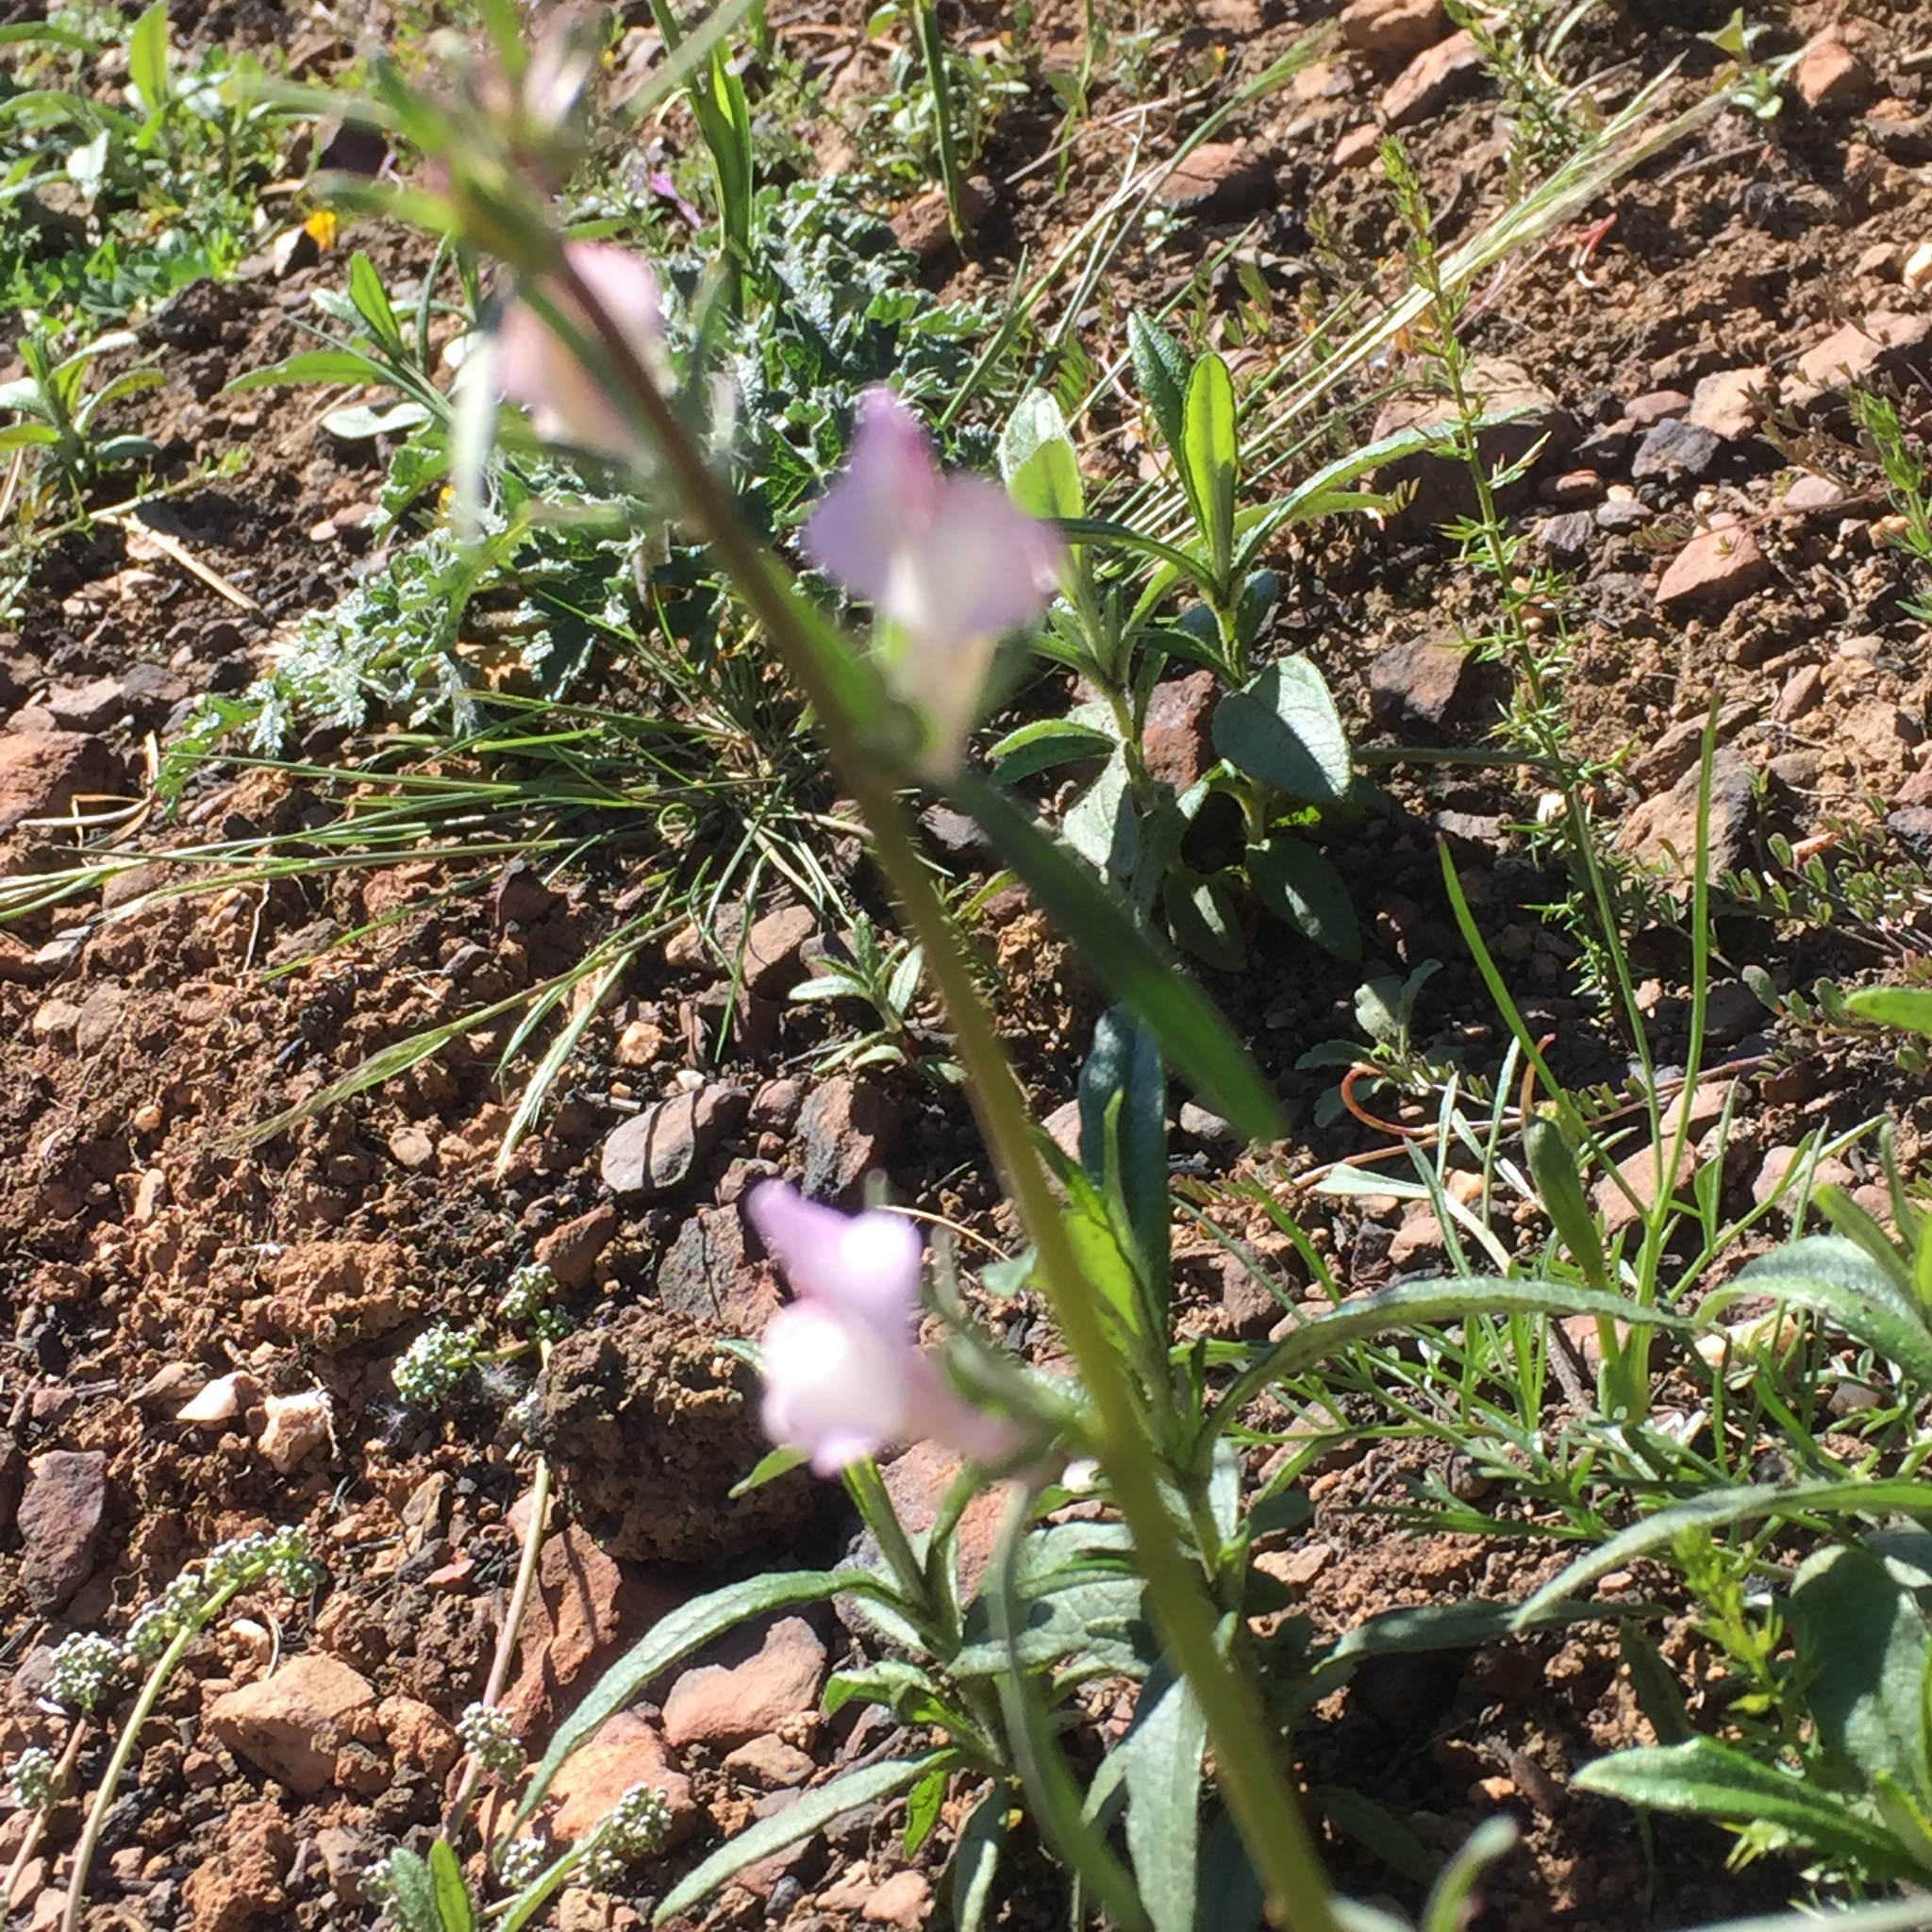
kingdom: Plantae
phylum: Tracheophyta
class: Magnoliopsida
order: Lamiales
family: Plantaginaceae
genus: Misopates
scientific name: Misopates orontium
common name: Weasel's-snout
